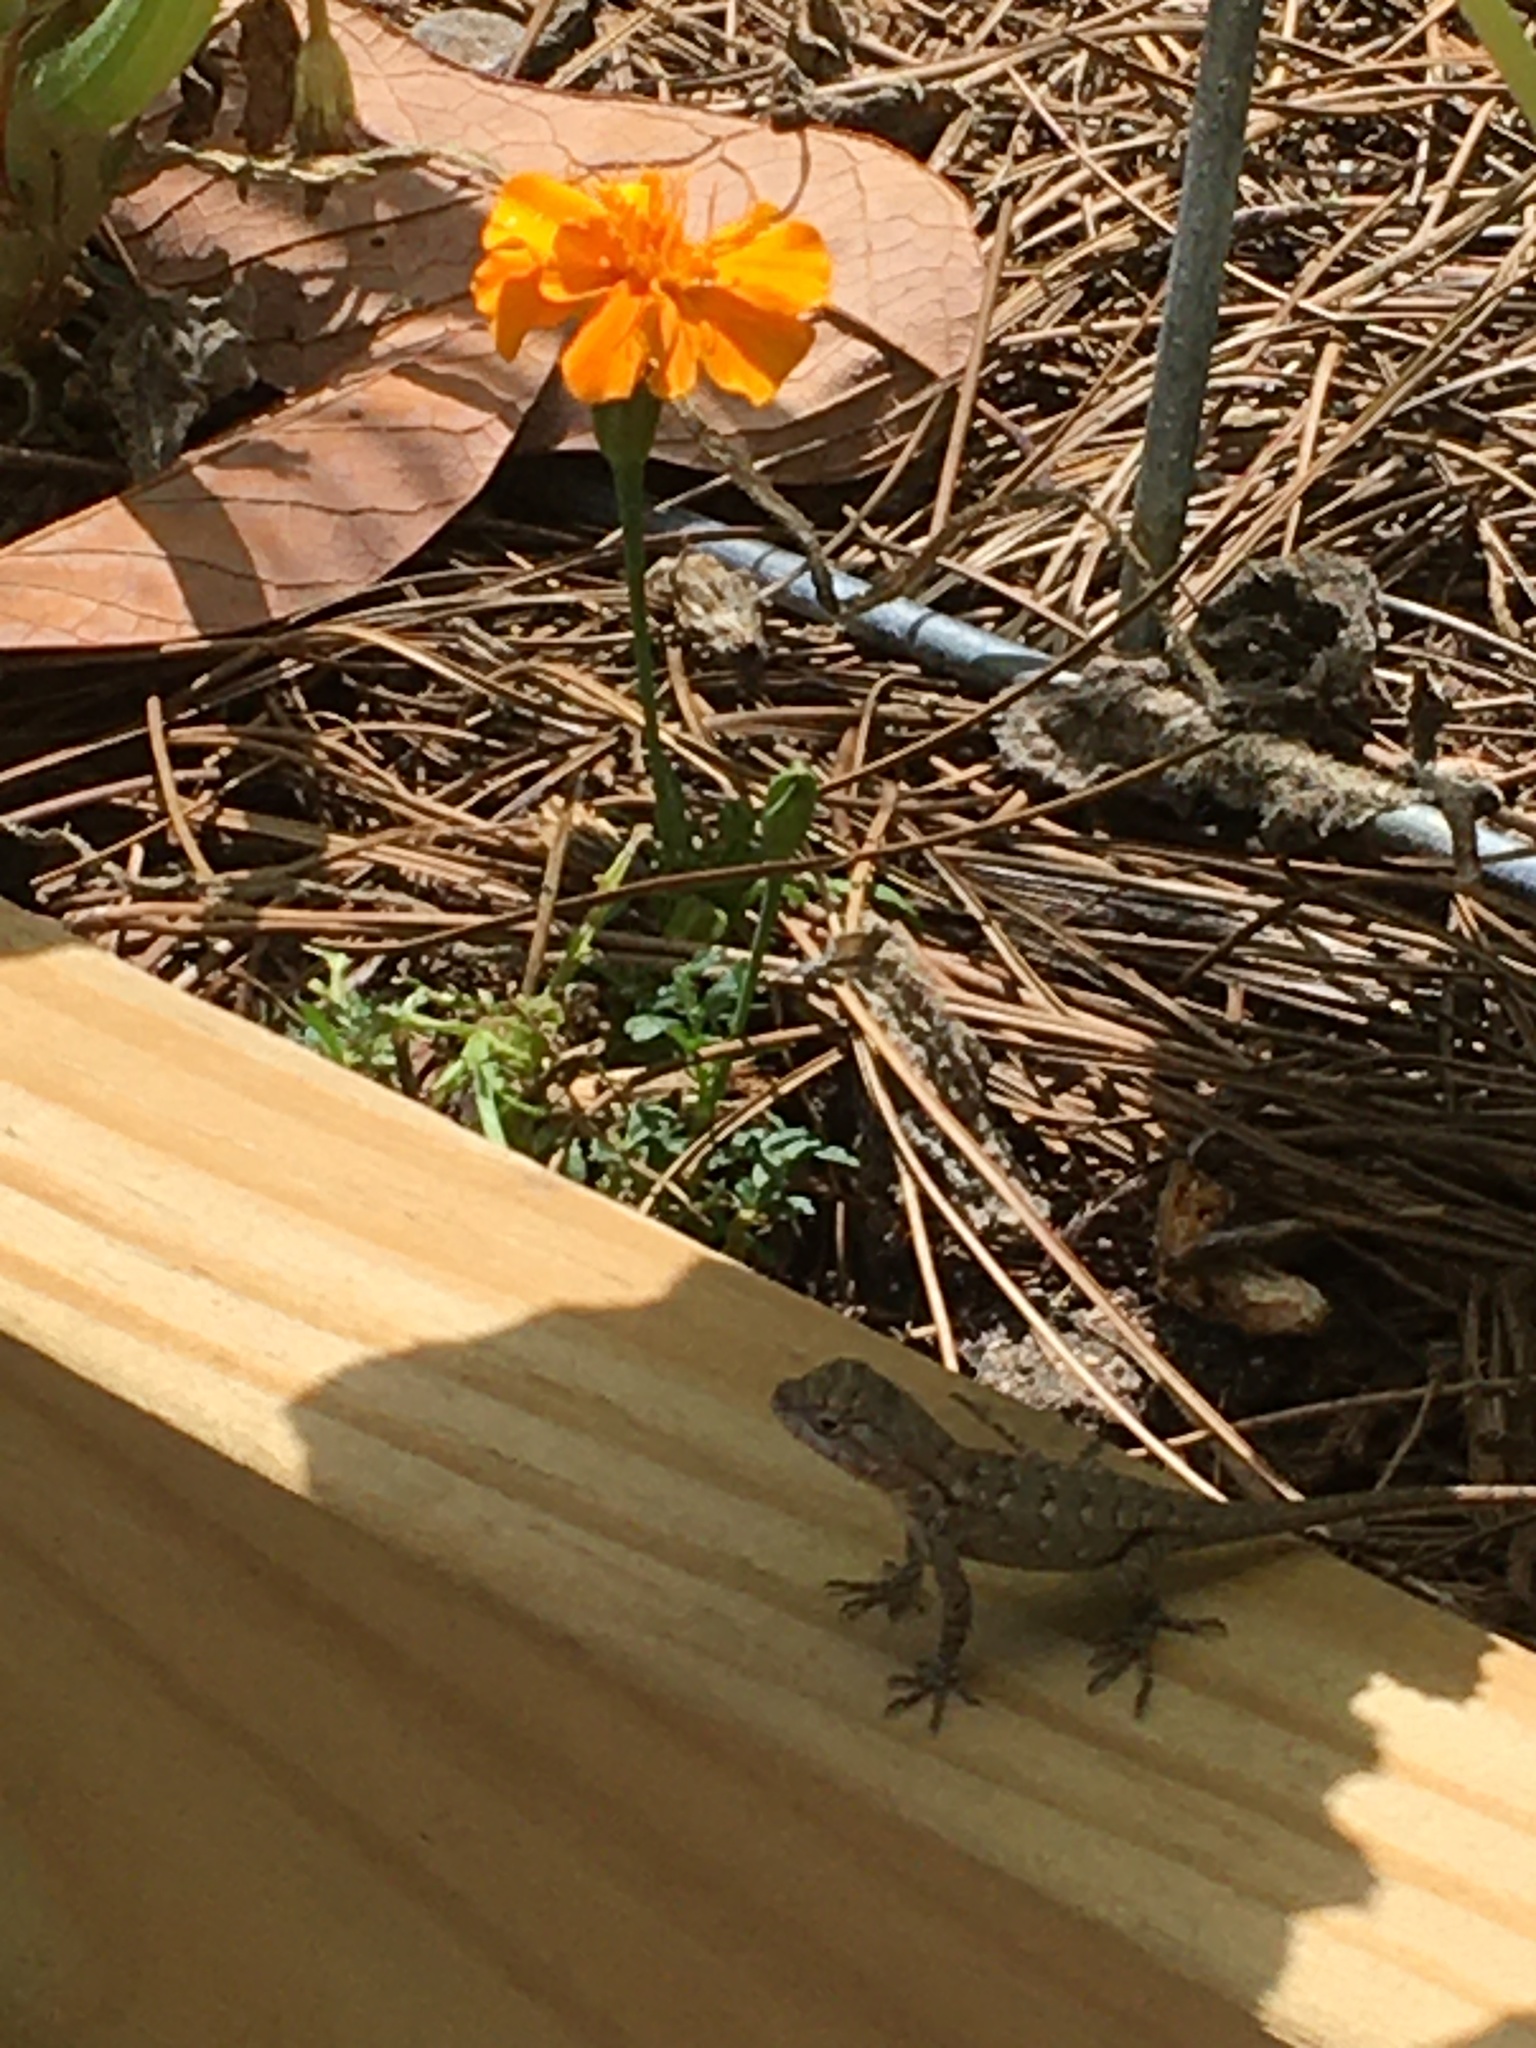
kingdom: Animalia
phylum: Chordata
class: Squamata
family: Phrynosomatidae
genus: Sceloporus
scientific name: Sceloporus olivaceus
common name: Texas spiny lizard
